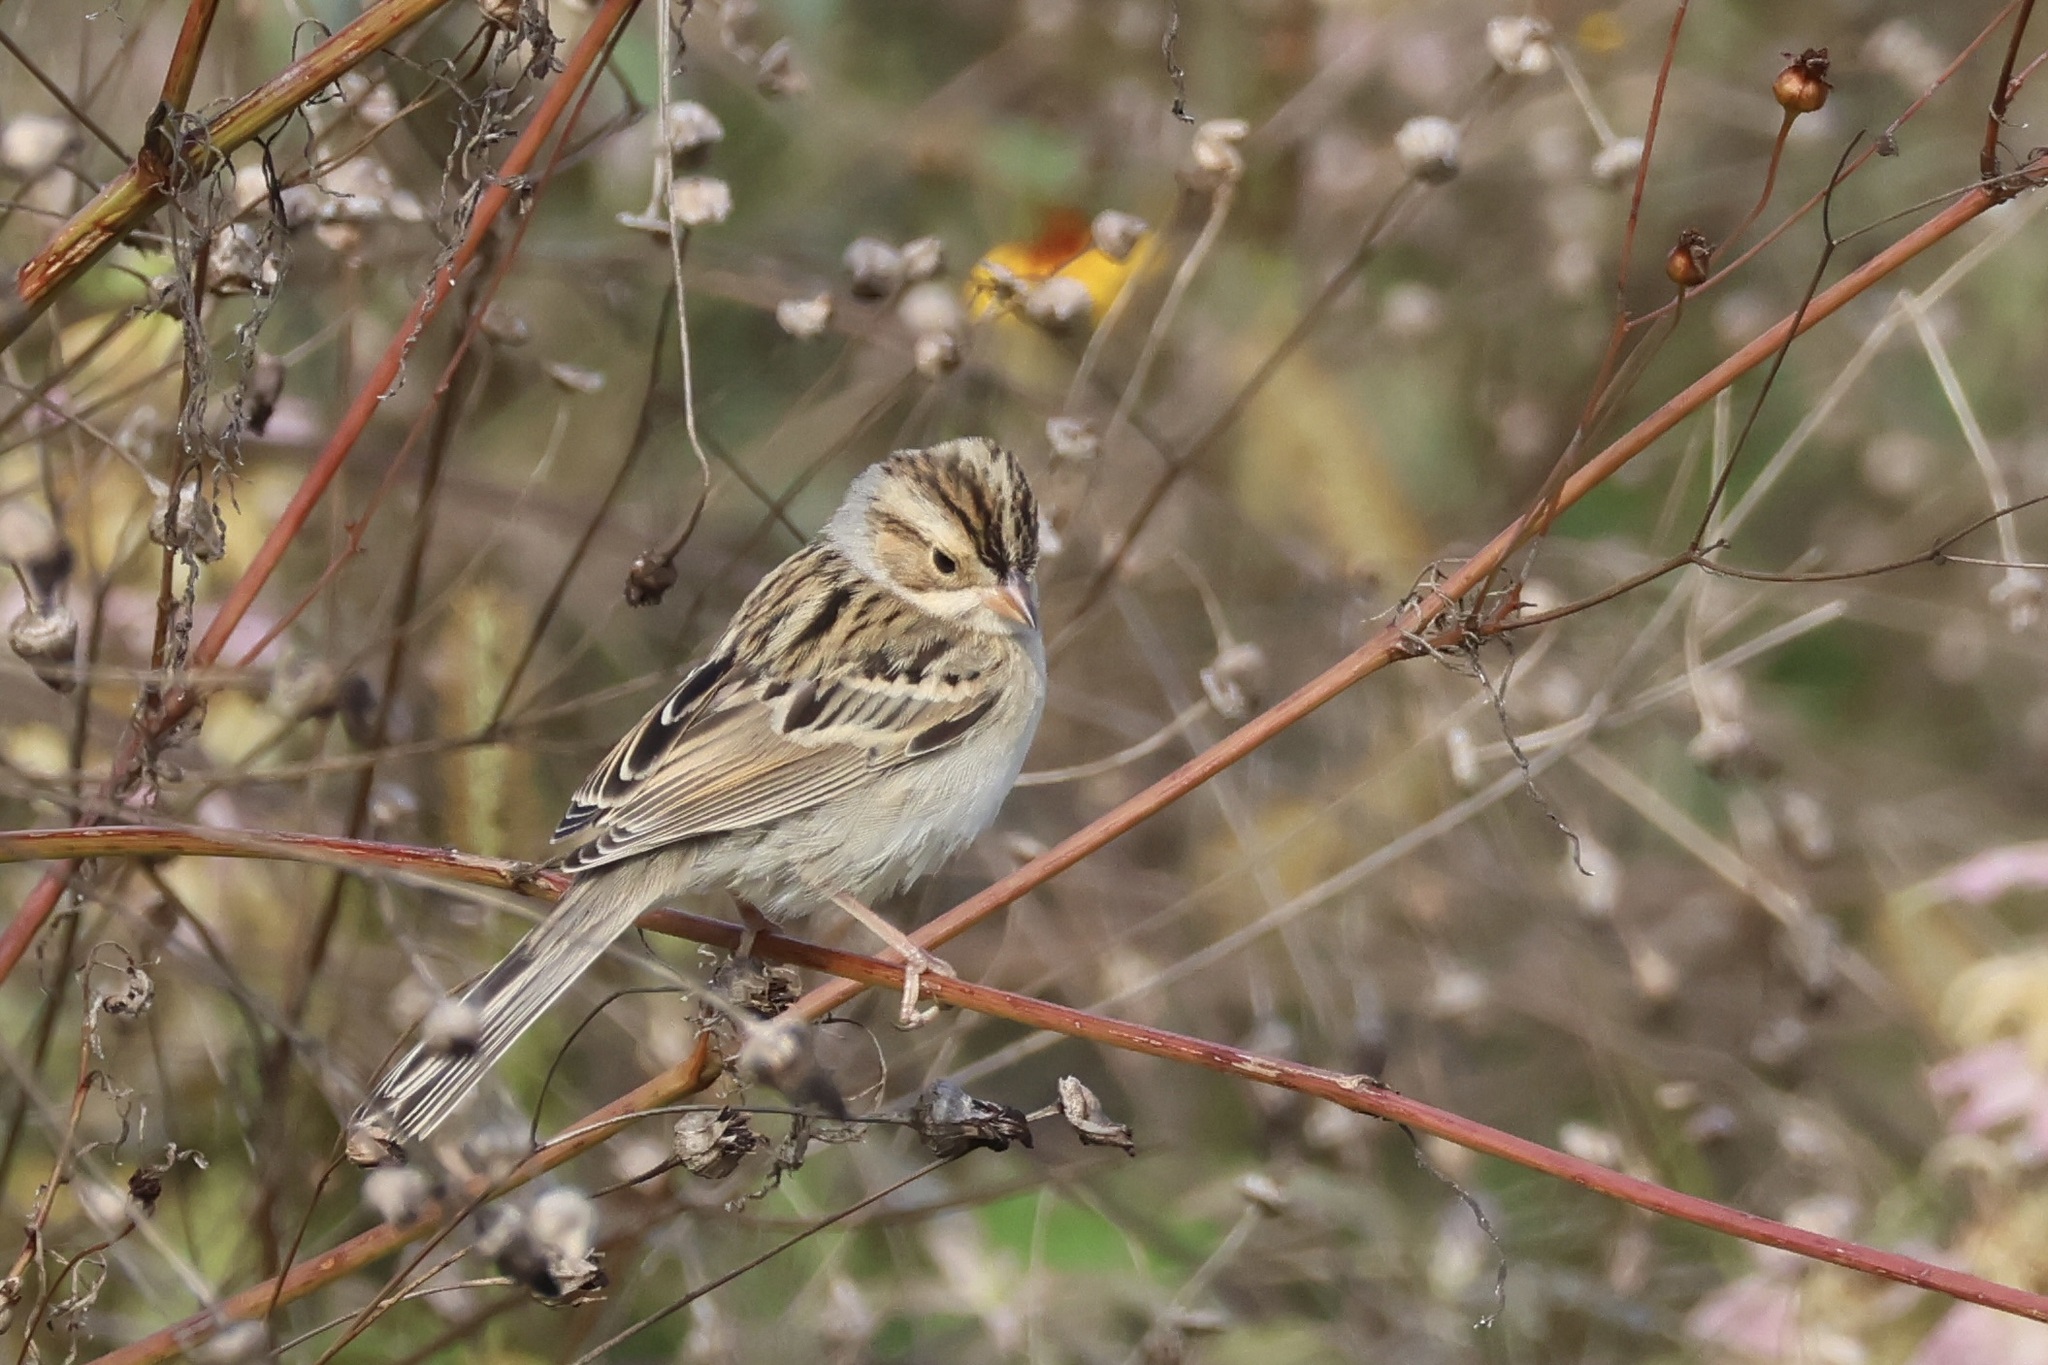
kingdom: Animalia
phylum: Chordata
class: Aves
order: Passeriformes
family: Passerellidae
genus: Spizella
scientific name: Spizella pallida
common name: Clay-colored sparrow
